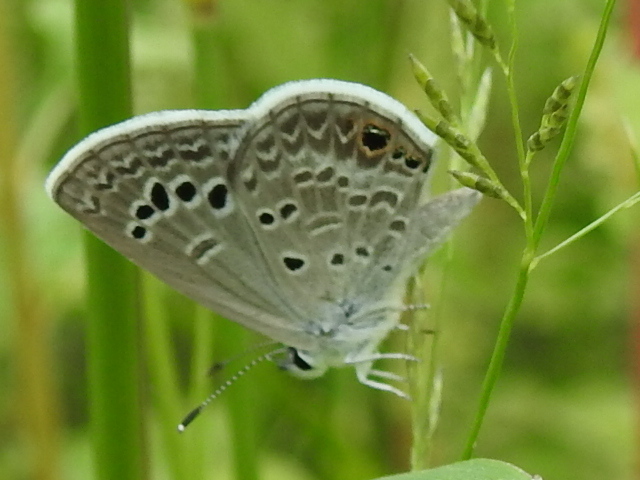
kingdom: Animalia
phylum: Arthropoda
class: Insecta
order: Lepidoptera
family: Lycaenidae
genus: Echinargus
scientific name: Echinargus isola
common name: Reakirt's blue
